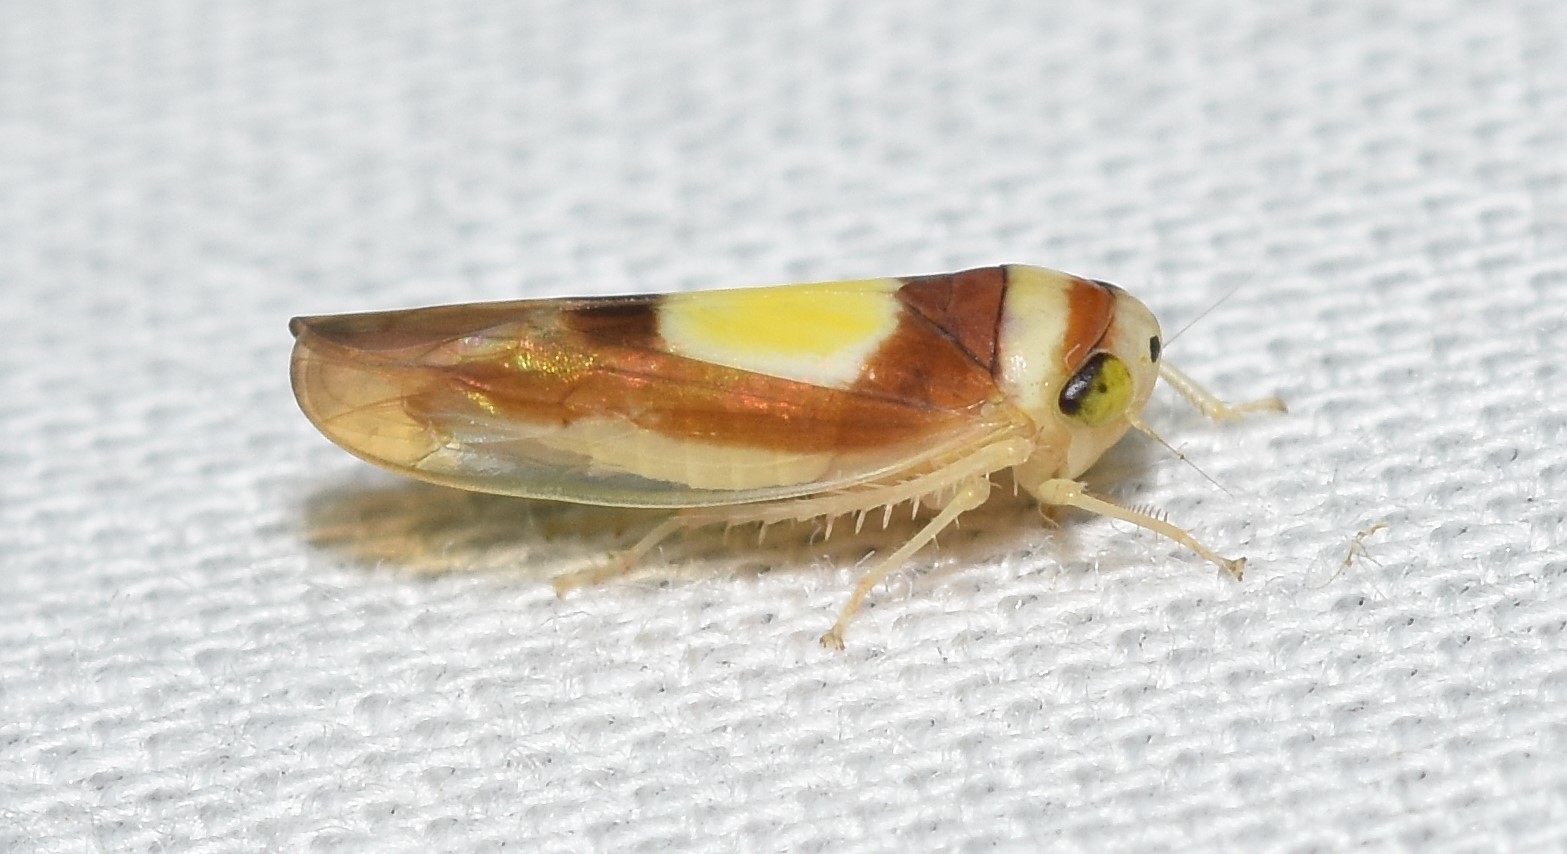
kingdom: Animalia
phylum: Arthropoda
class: Insecta
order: Hemiptera
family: Cicadellidae
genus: Colladonus
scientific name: Colladonus clitellarius
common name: The saddleback leafhopper
